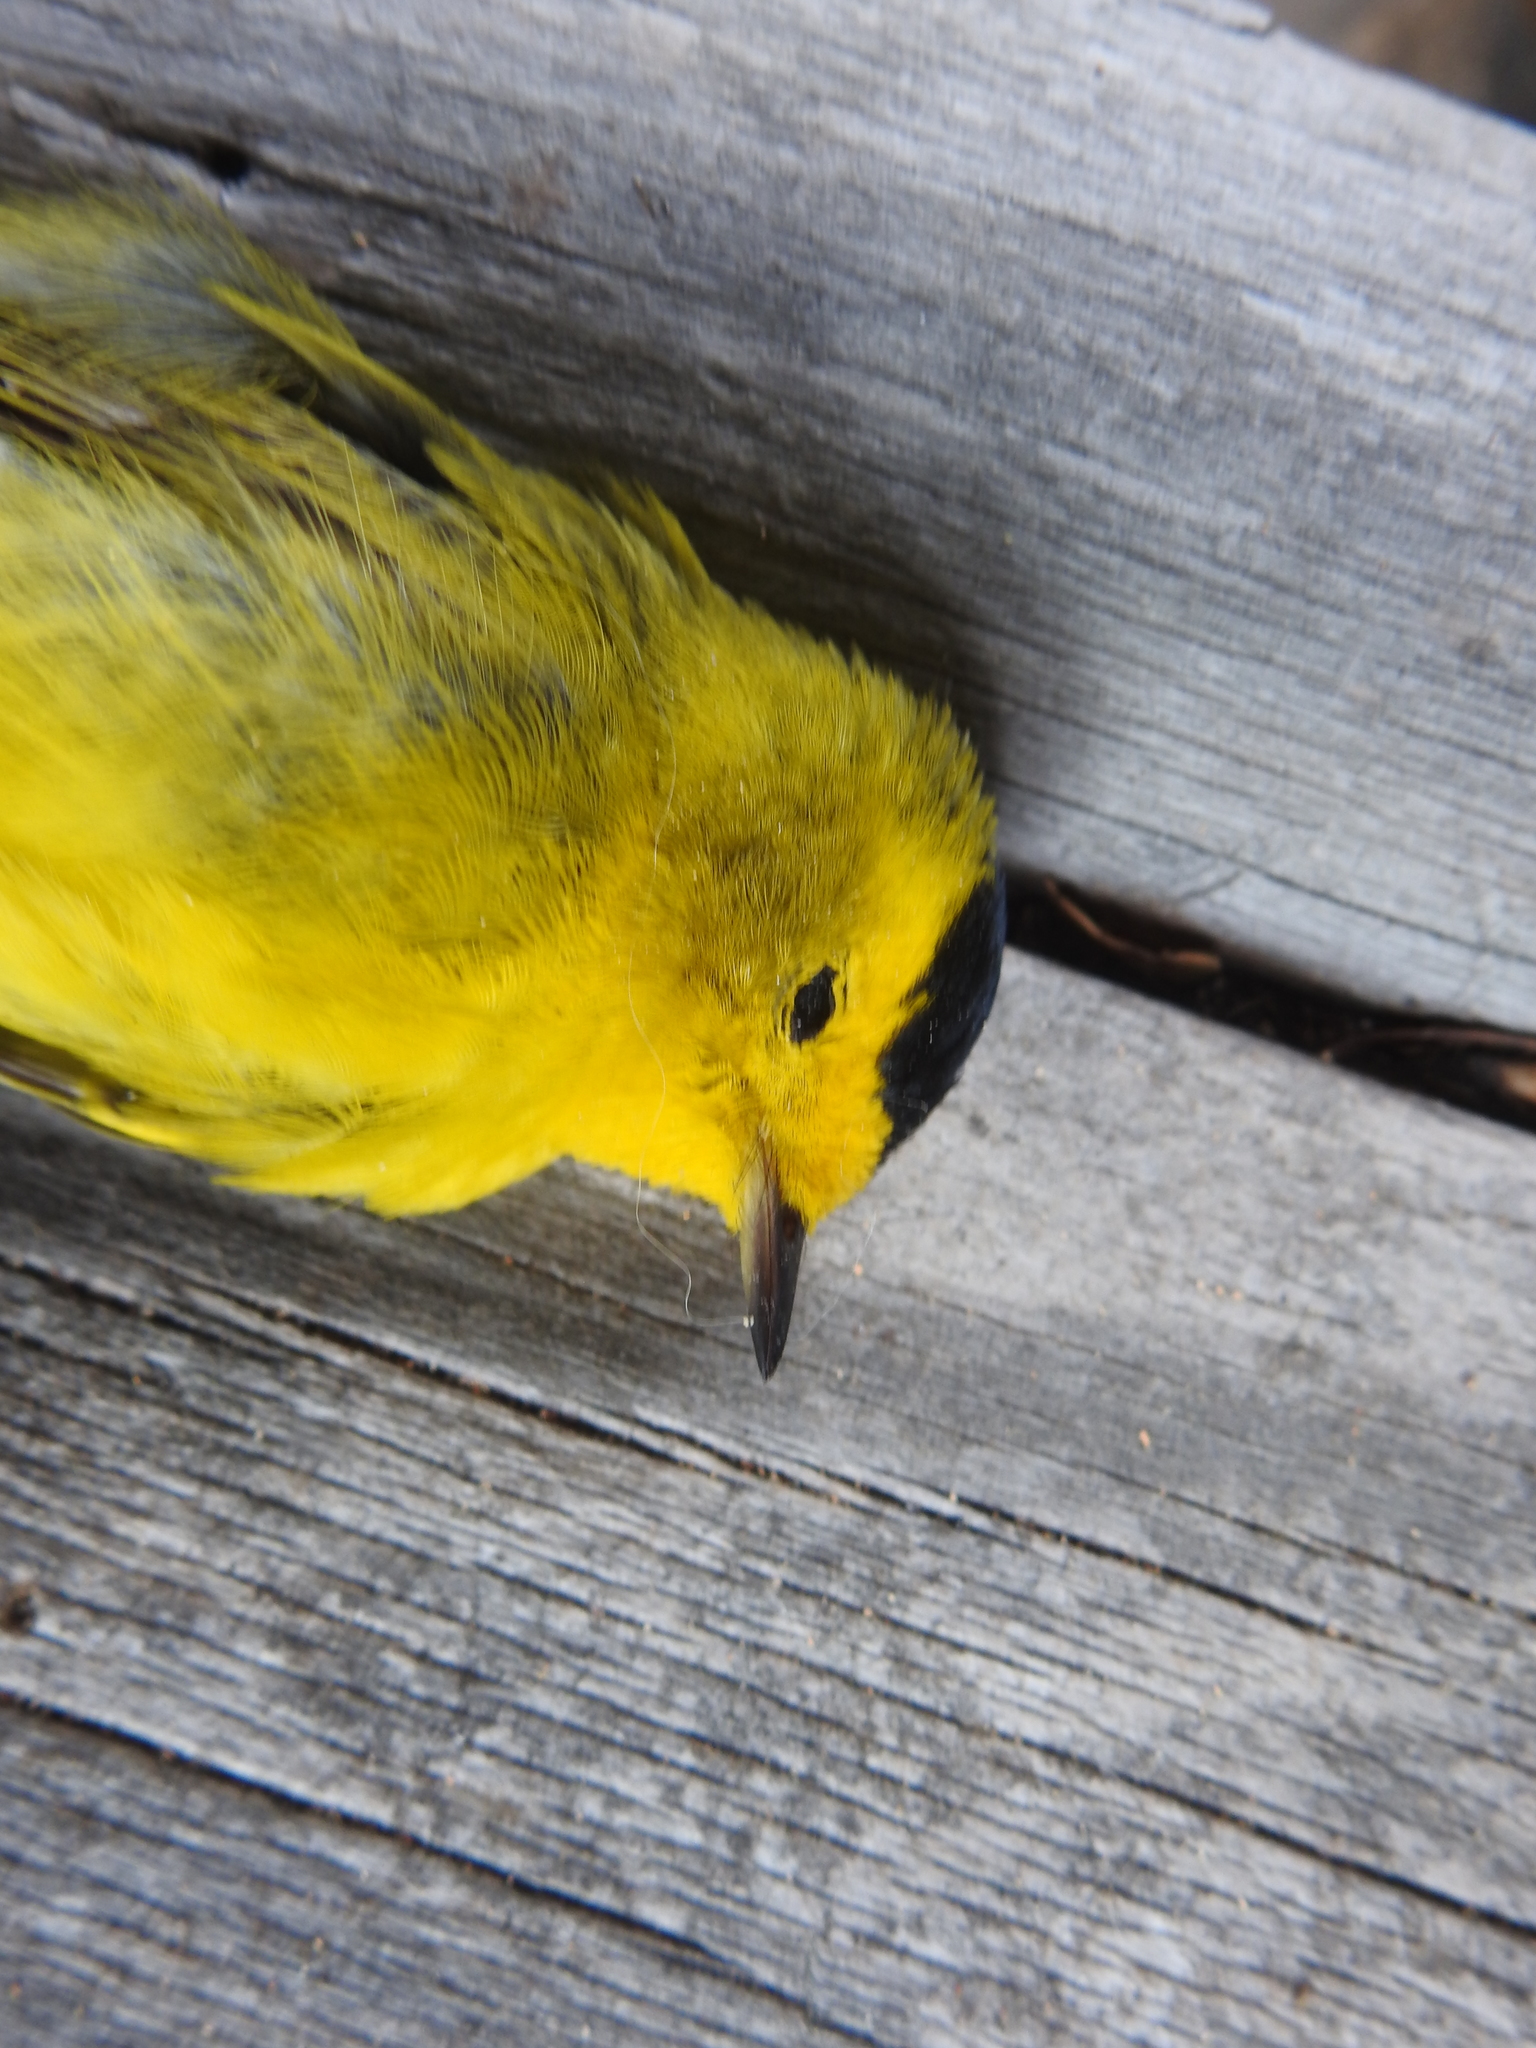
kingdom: Animalia
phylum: Chordata
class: Aves
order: Passeriformes
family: Parulidae
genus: Cardellina
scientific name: Cardellina pusilla
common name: Wilson's warbler
